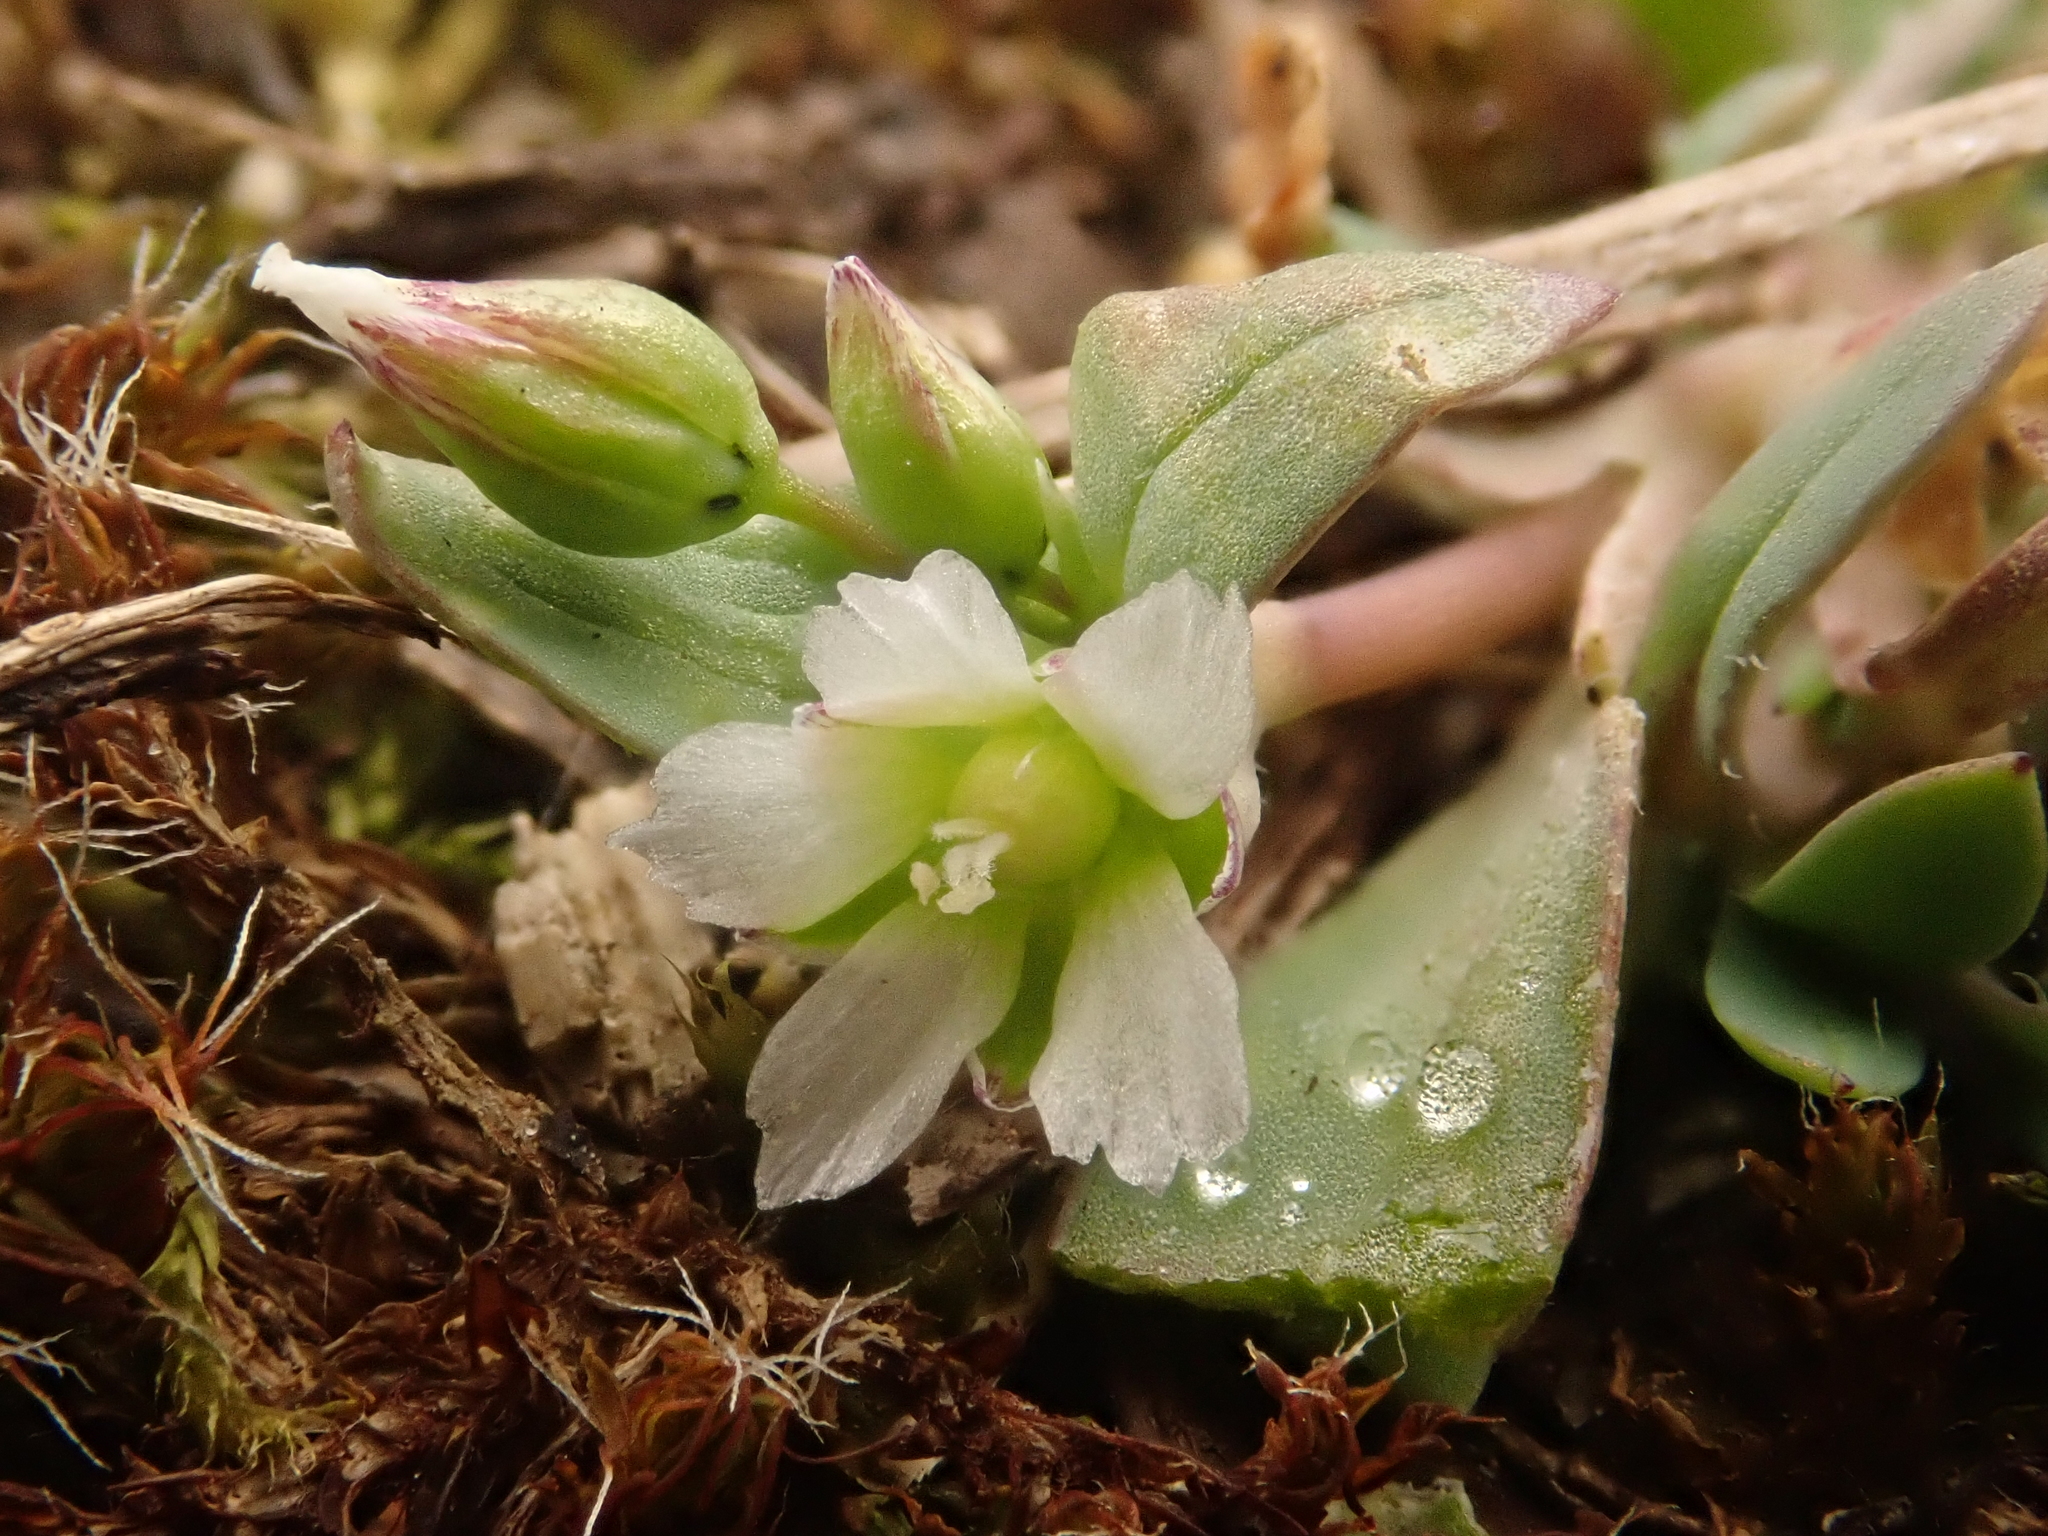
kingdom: Plantae
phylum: Tracheophyta
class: Magnoliopsida
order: Caryophyllales
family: Caryophyllaceae
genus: Holosteum
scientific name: Holosteum umbellatum
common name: Jagged chickweed
